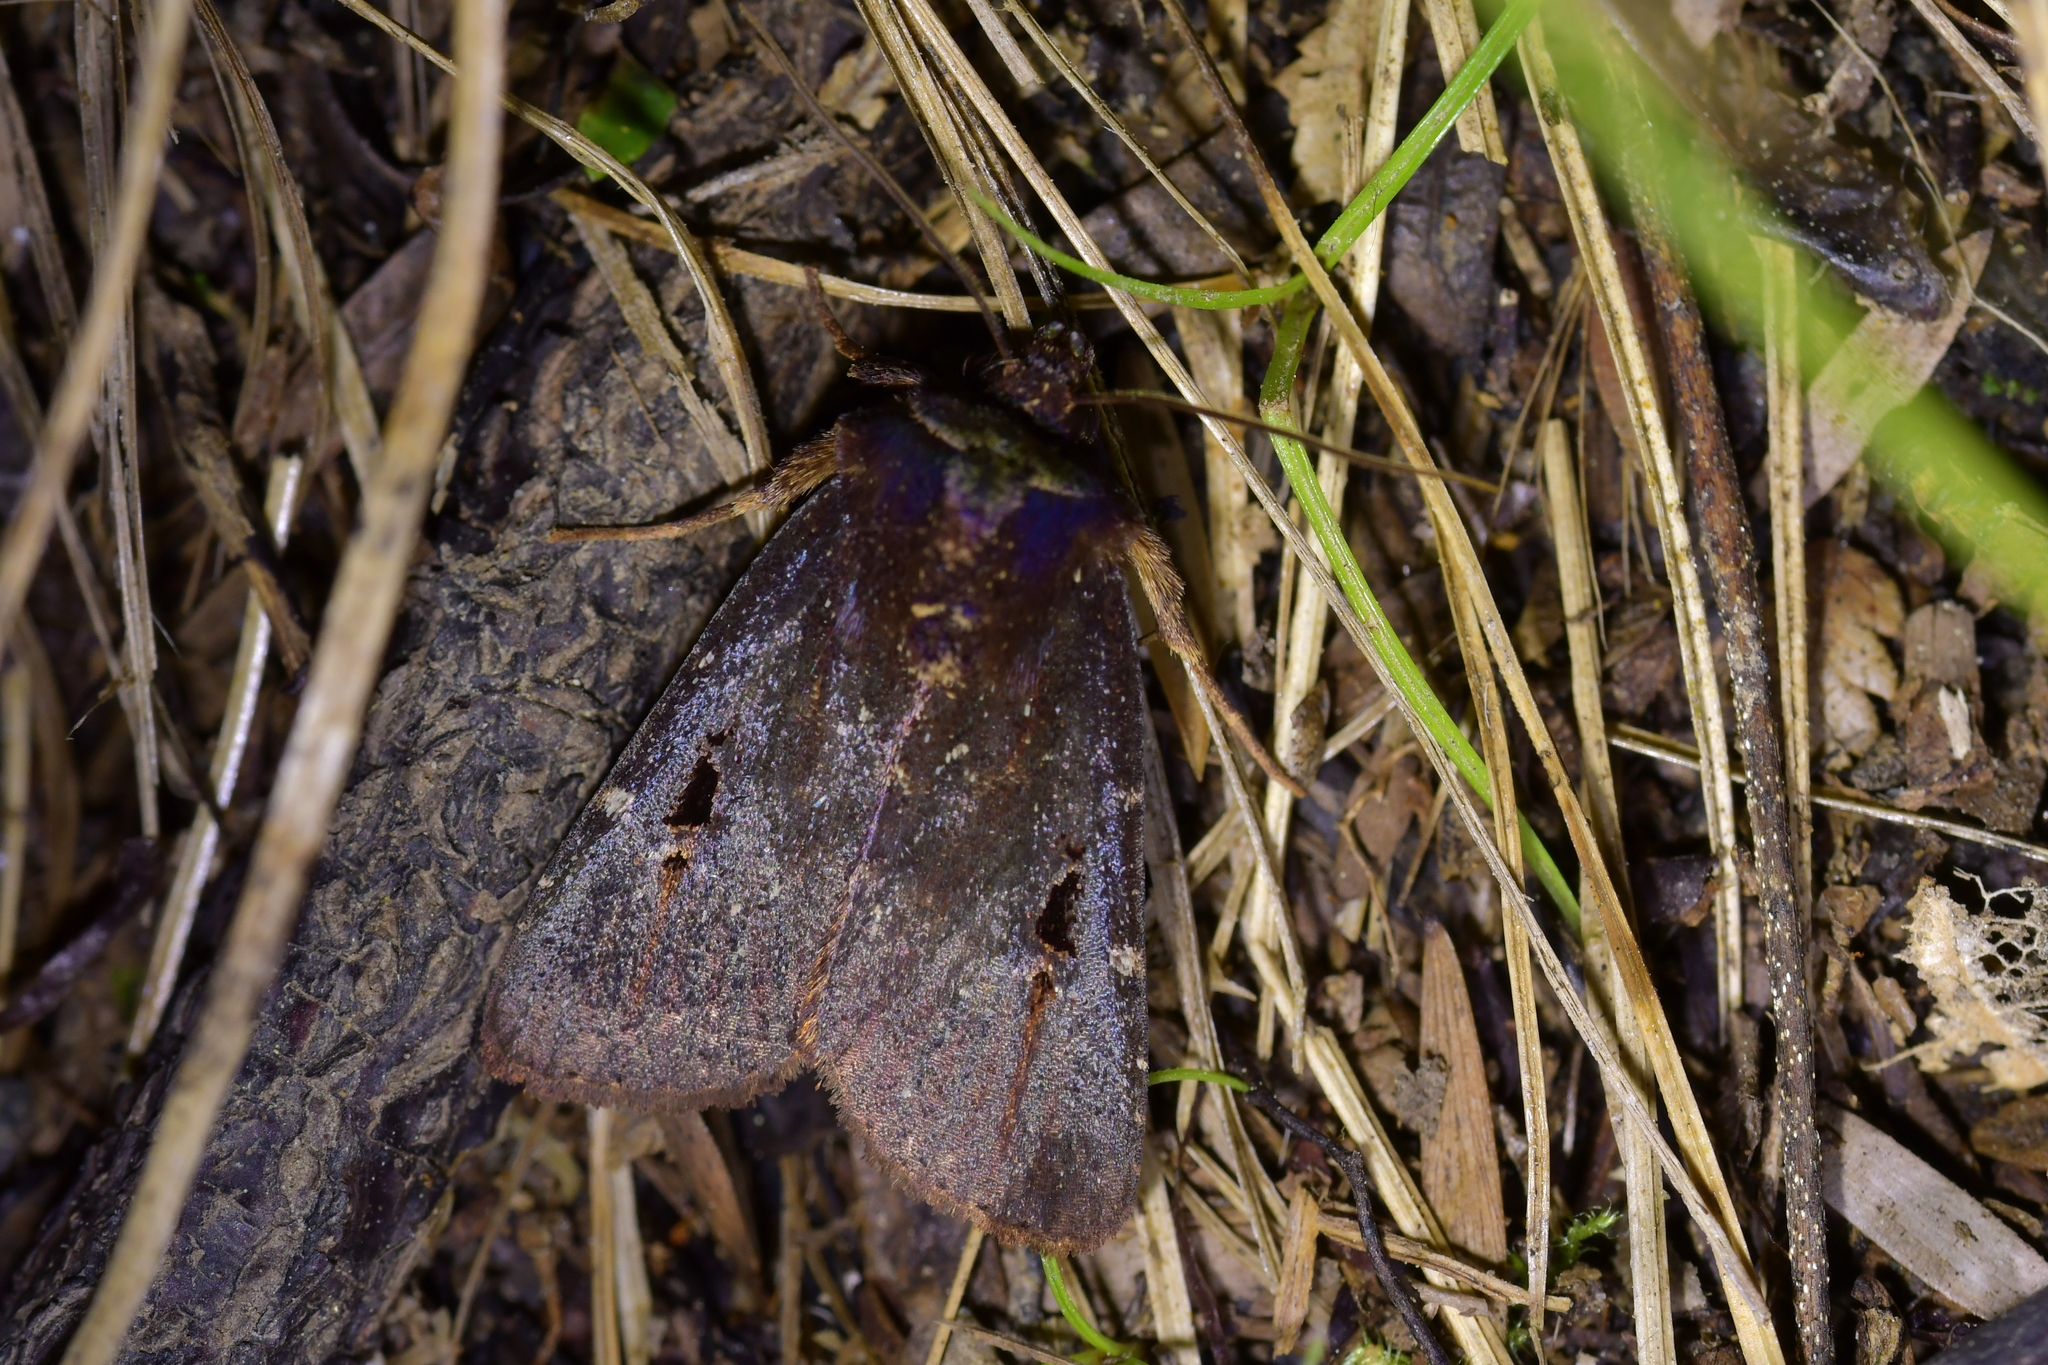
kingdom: Animalia
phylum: Arthropoda
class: Insecta
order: Lepidoptera
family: Noctuidae
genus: Austramathes
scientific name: Austramathes purpurea
